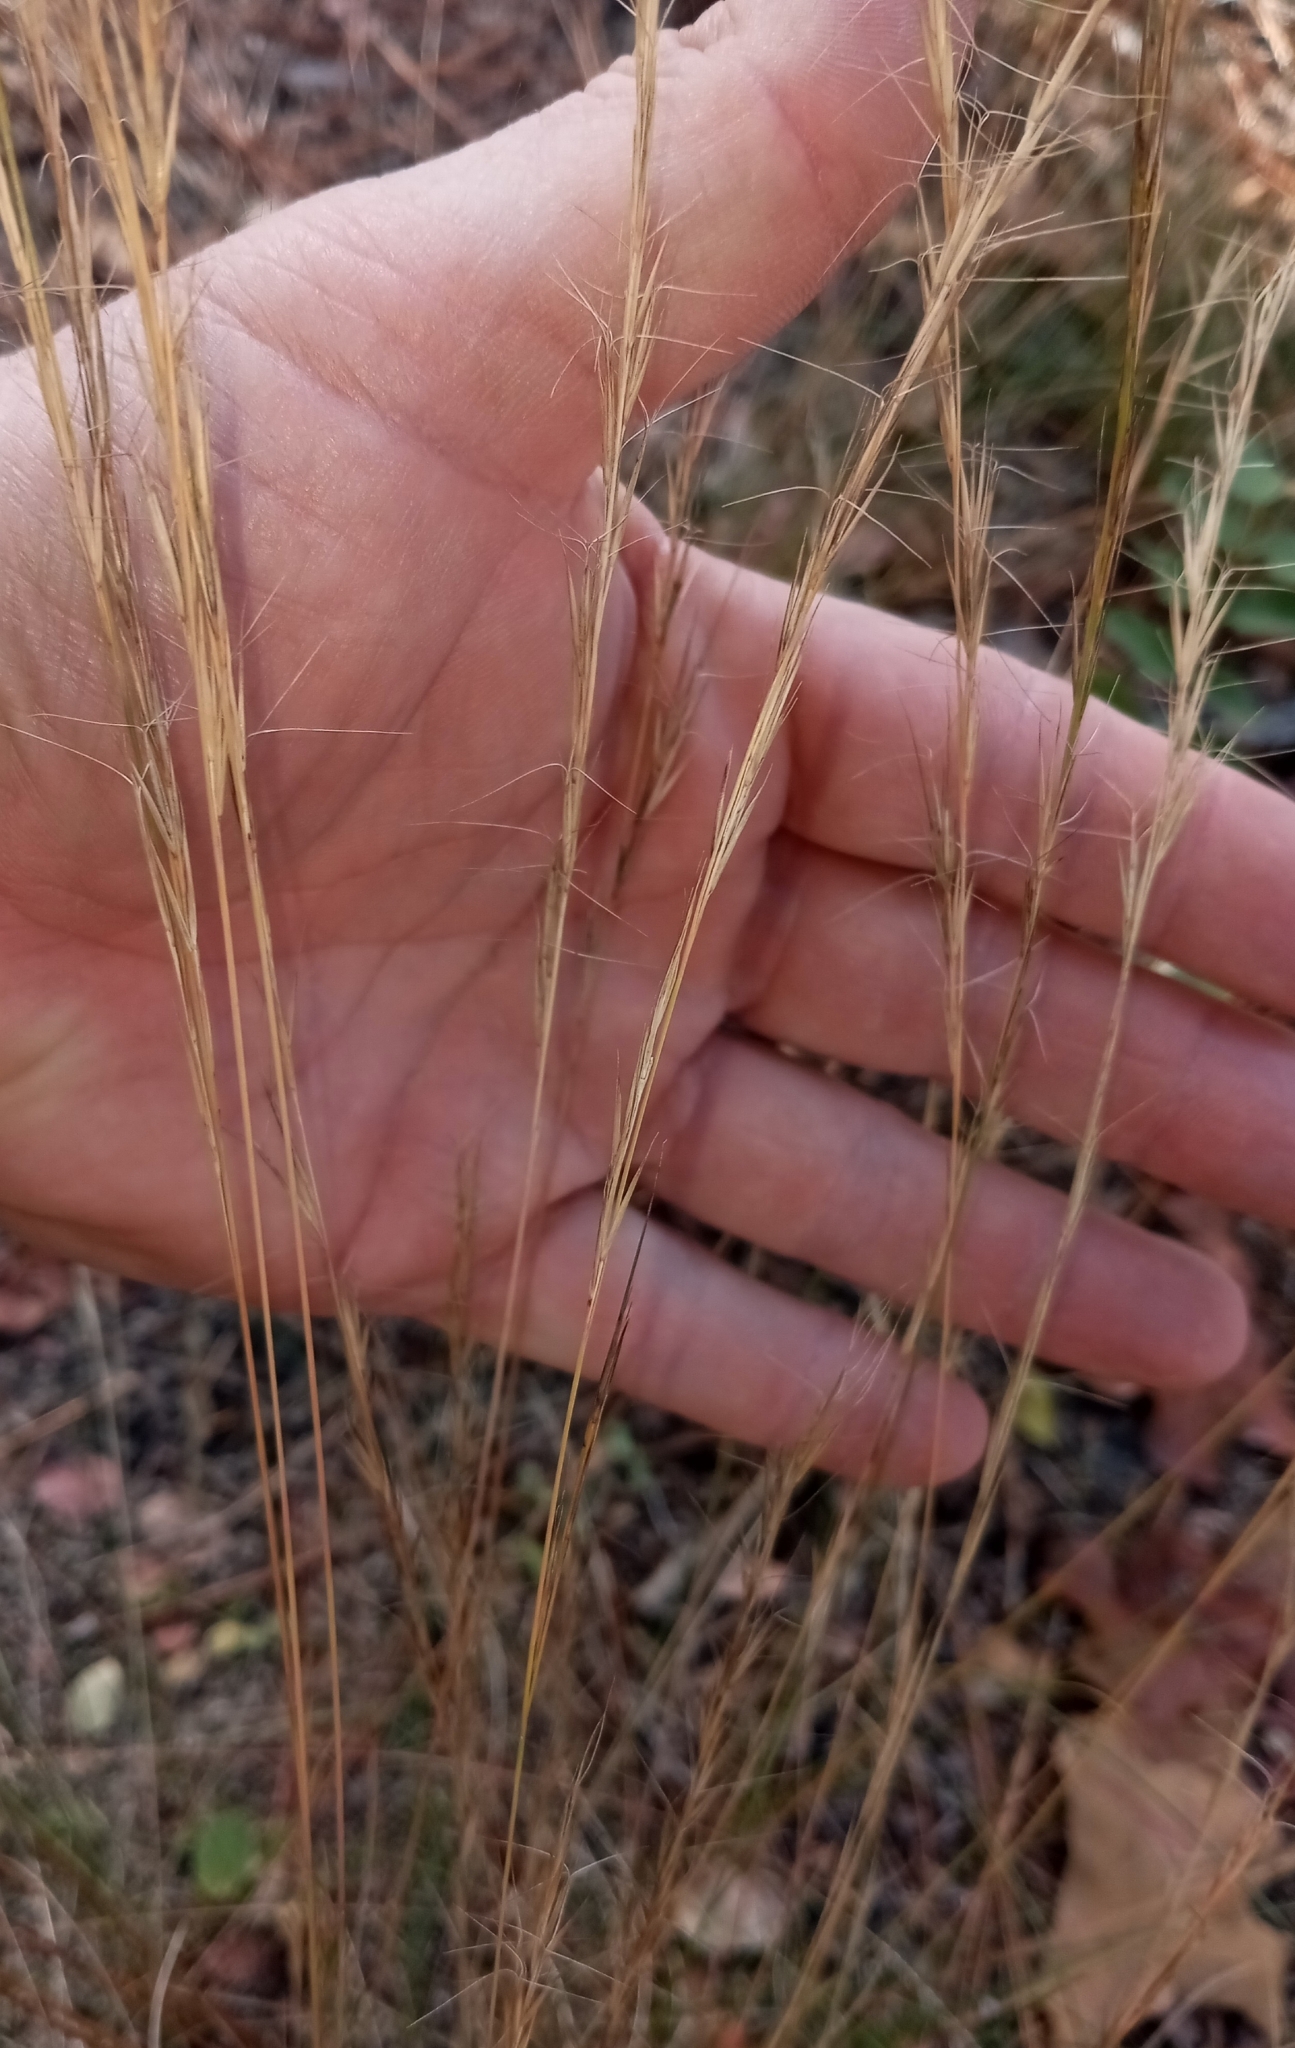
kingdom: Plantae
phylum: Tracheophyta
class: Liliopsida
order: Poales
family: Poaceae
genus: Aristida
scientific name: Aristida purpurascens
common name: Arrow-feather
